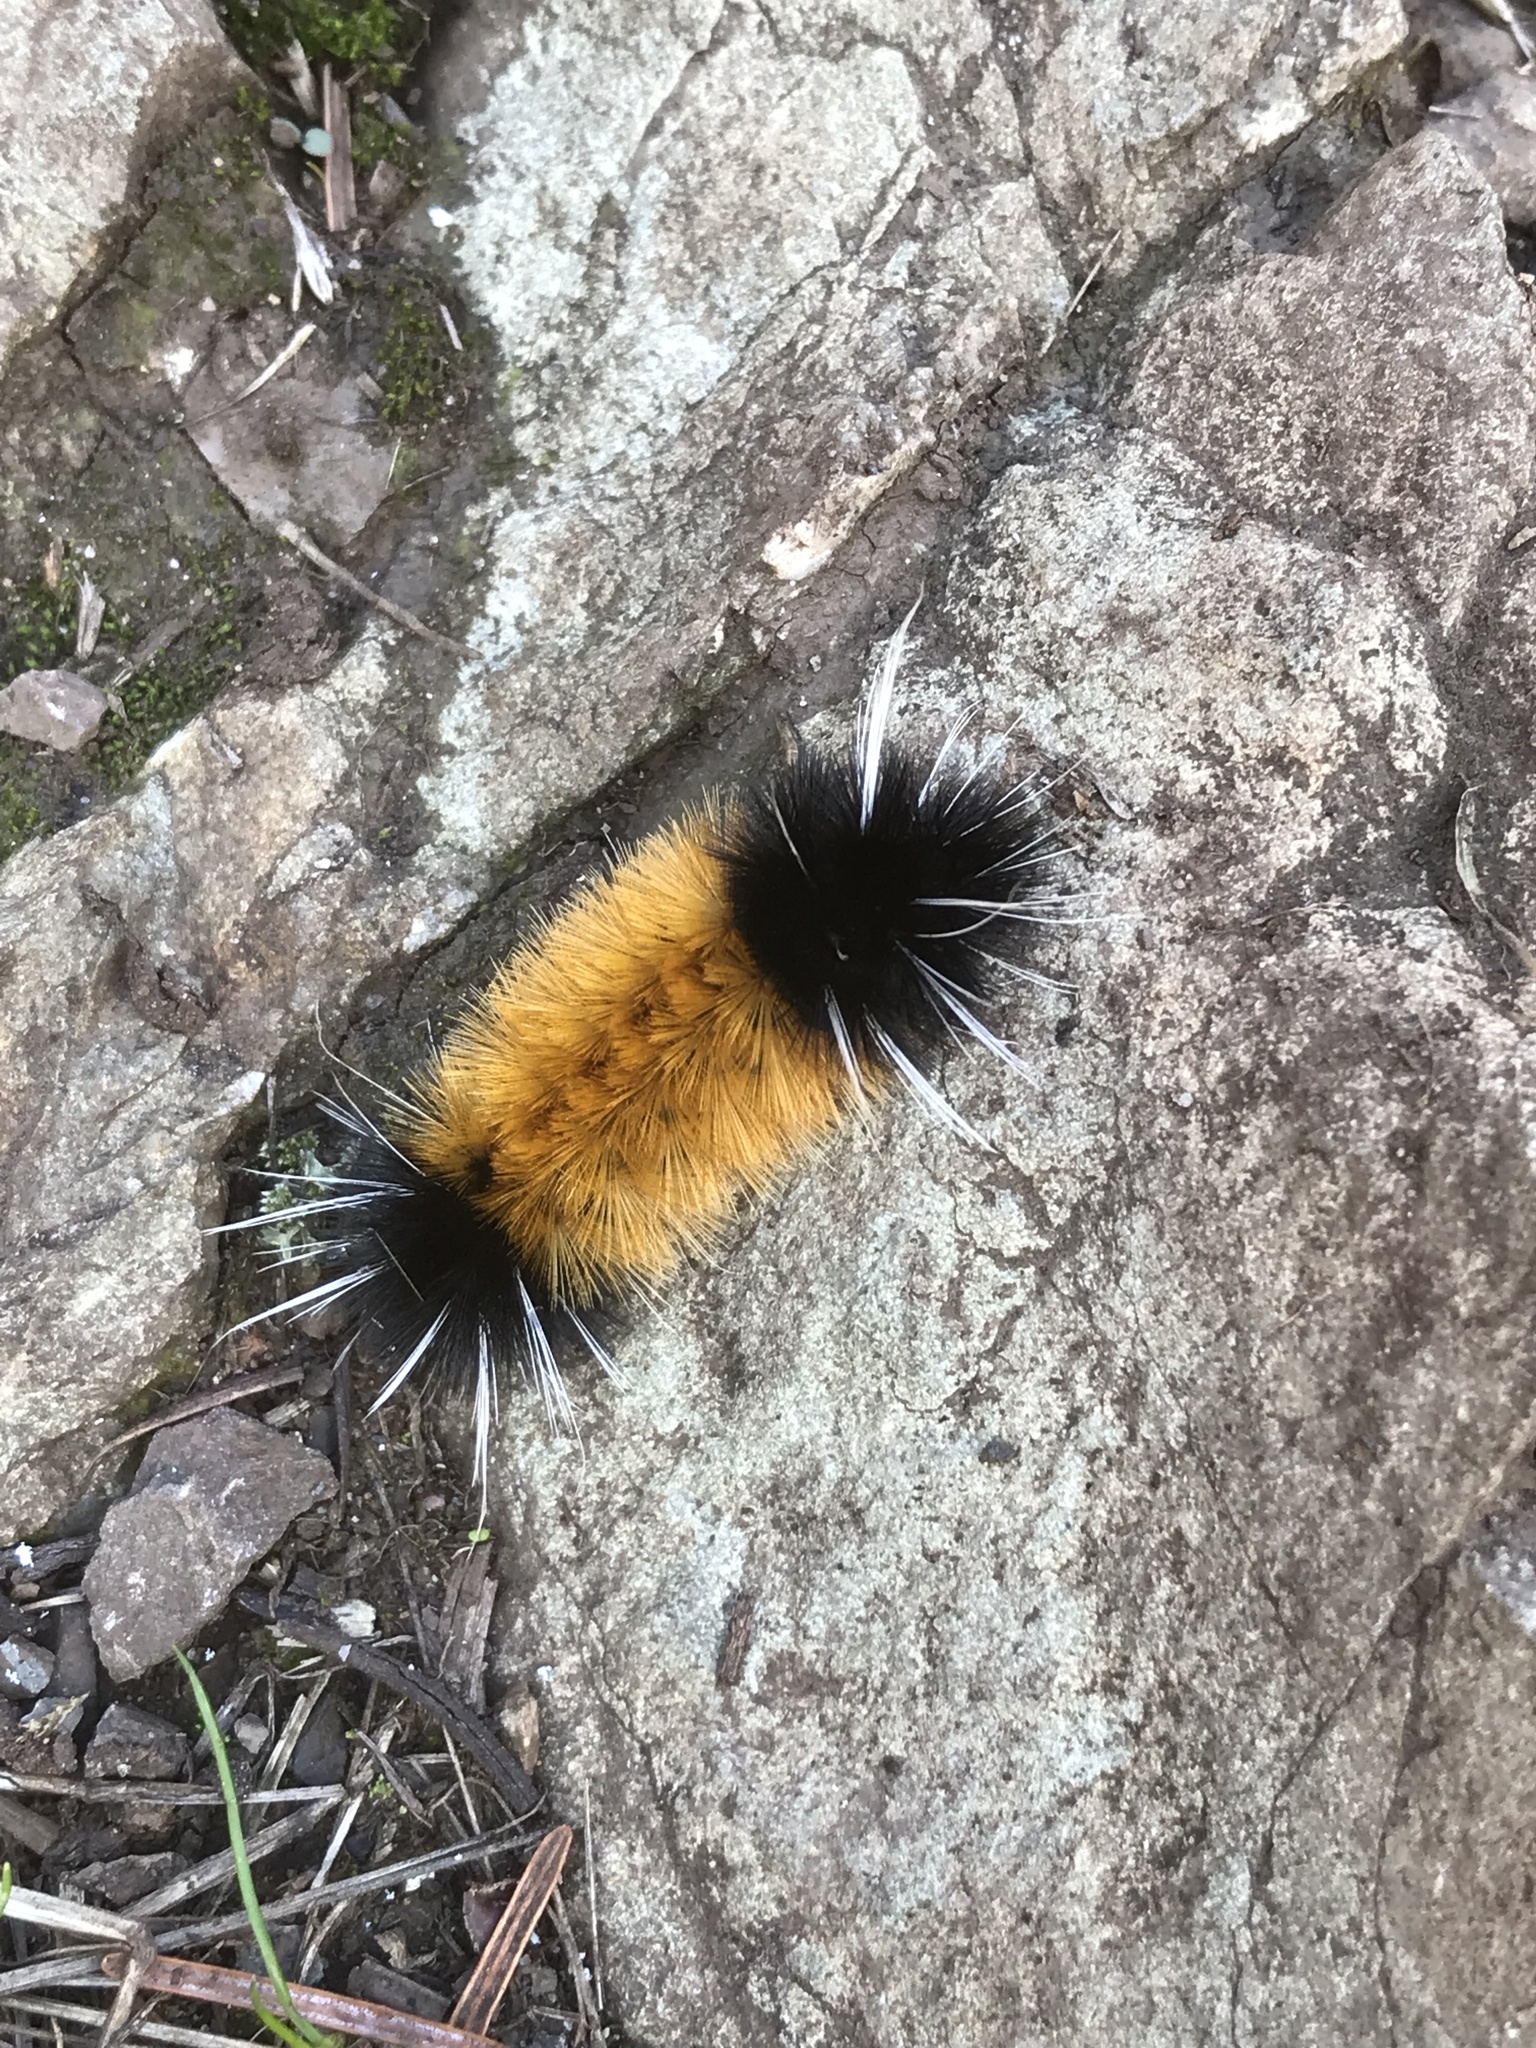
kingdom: Animalia
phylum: Arthropoda
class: Insecta
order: Lepidoptera
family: Erebidae
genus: Lophocampa
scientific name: Lophocampa maculata
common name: Spotted tussock moth
